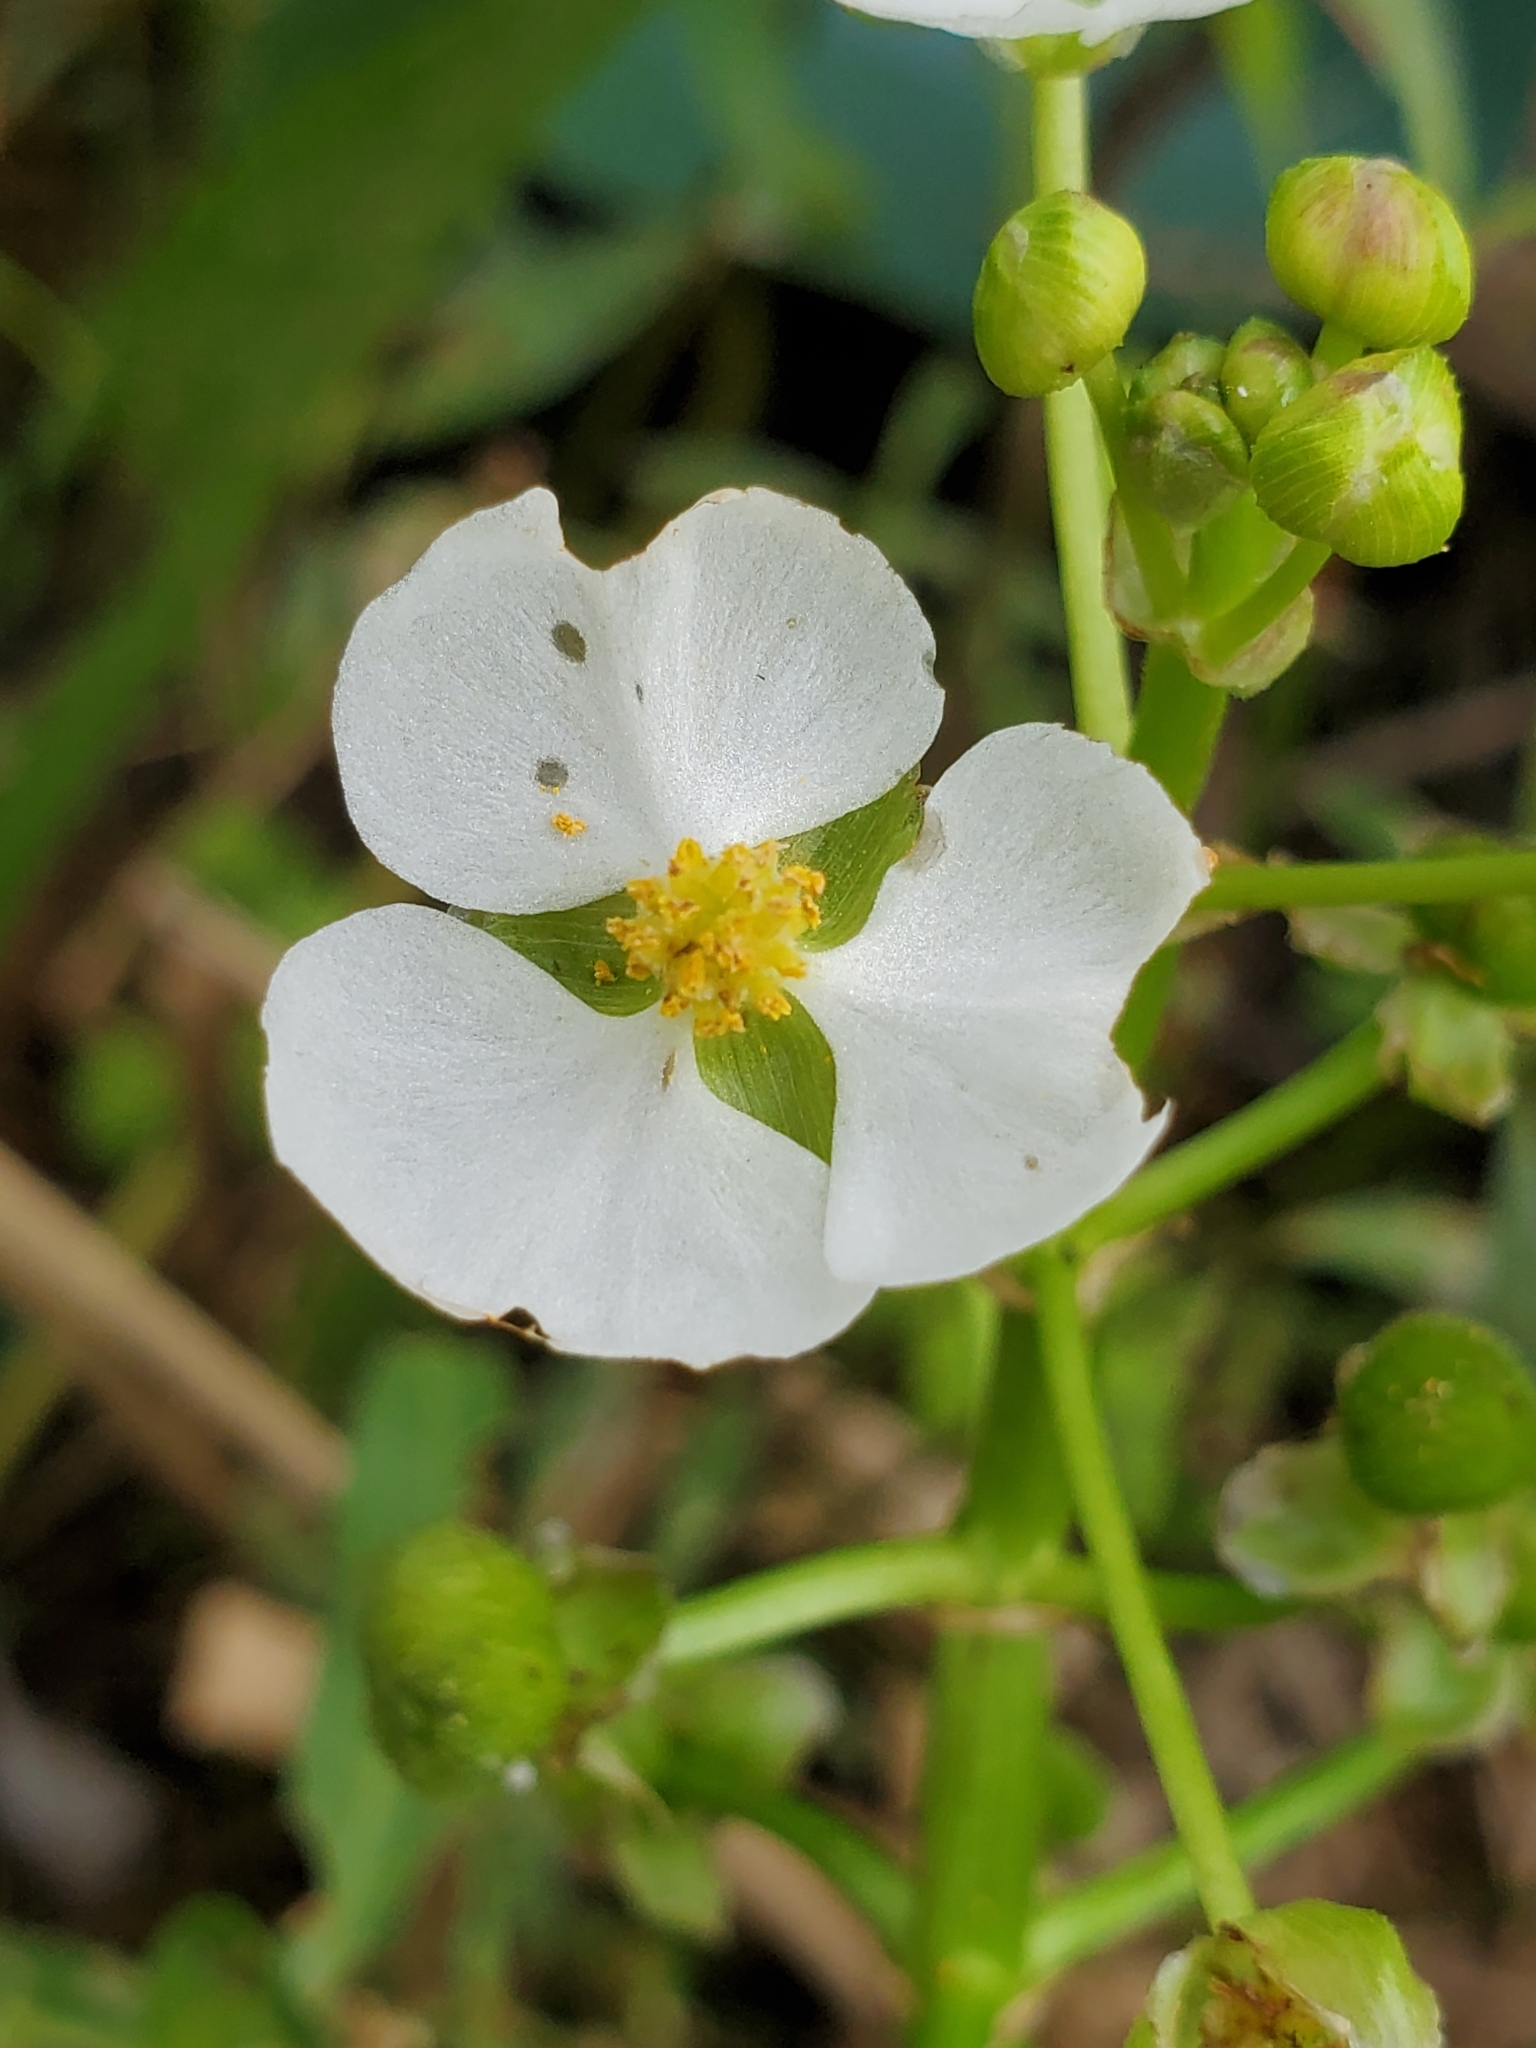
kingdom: Plantae
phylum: Tracheophyta
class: Liliopsida
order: Alismatales
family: Alismataceae
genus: Sagittaria
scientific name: Sagittaria platyphylla
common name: Broad-leaf arrowhead
